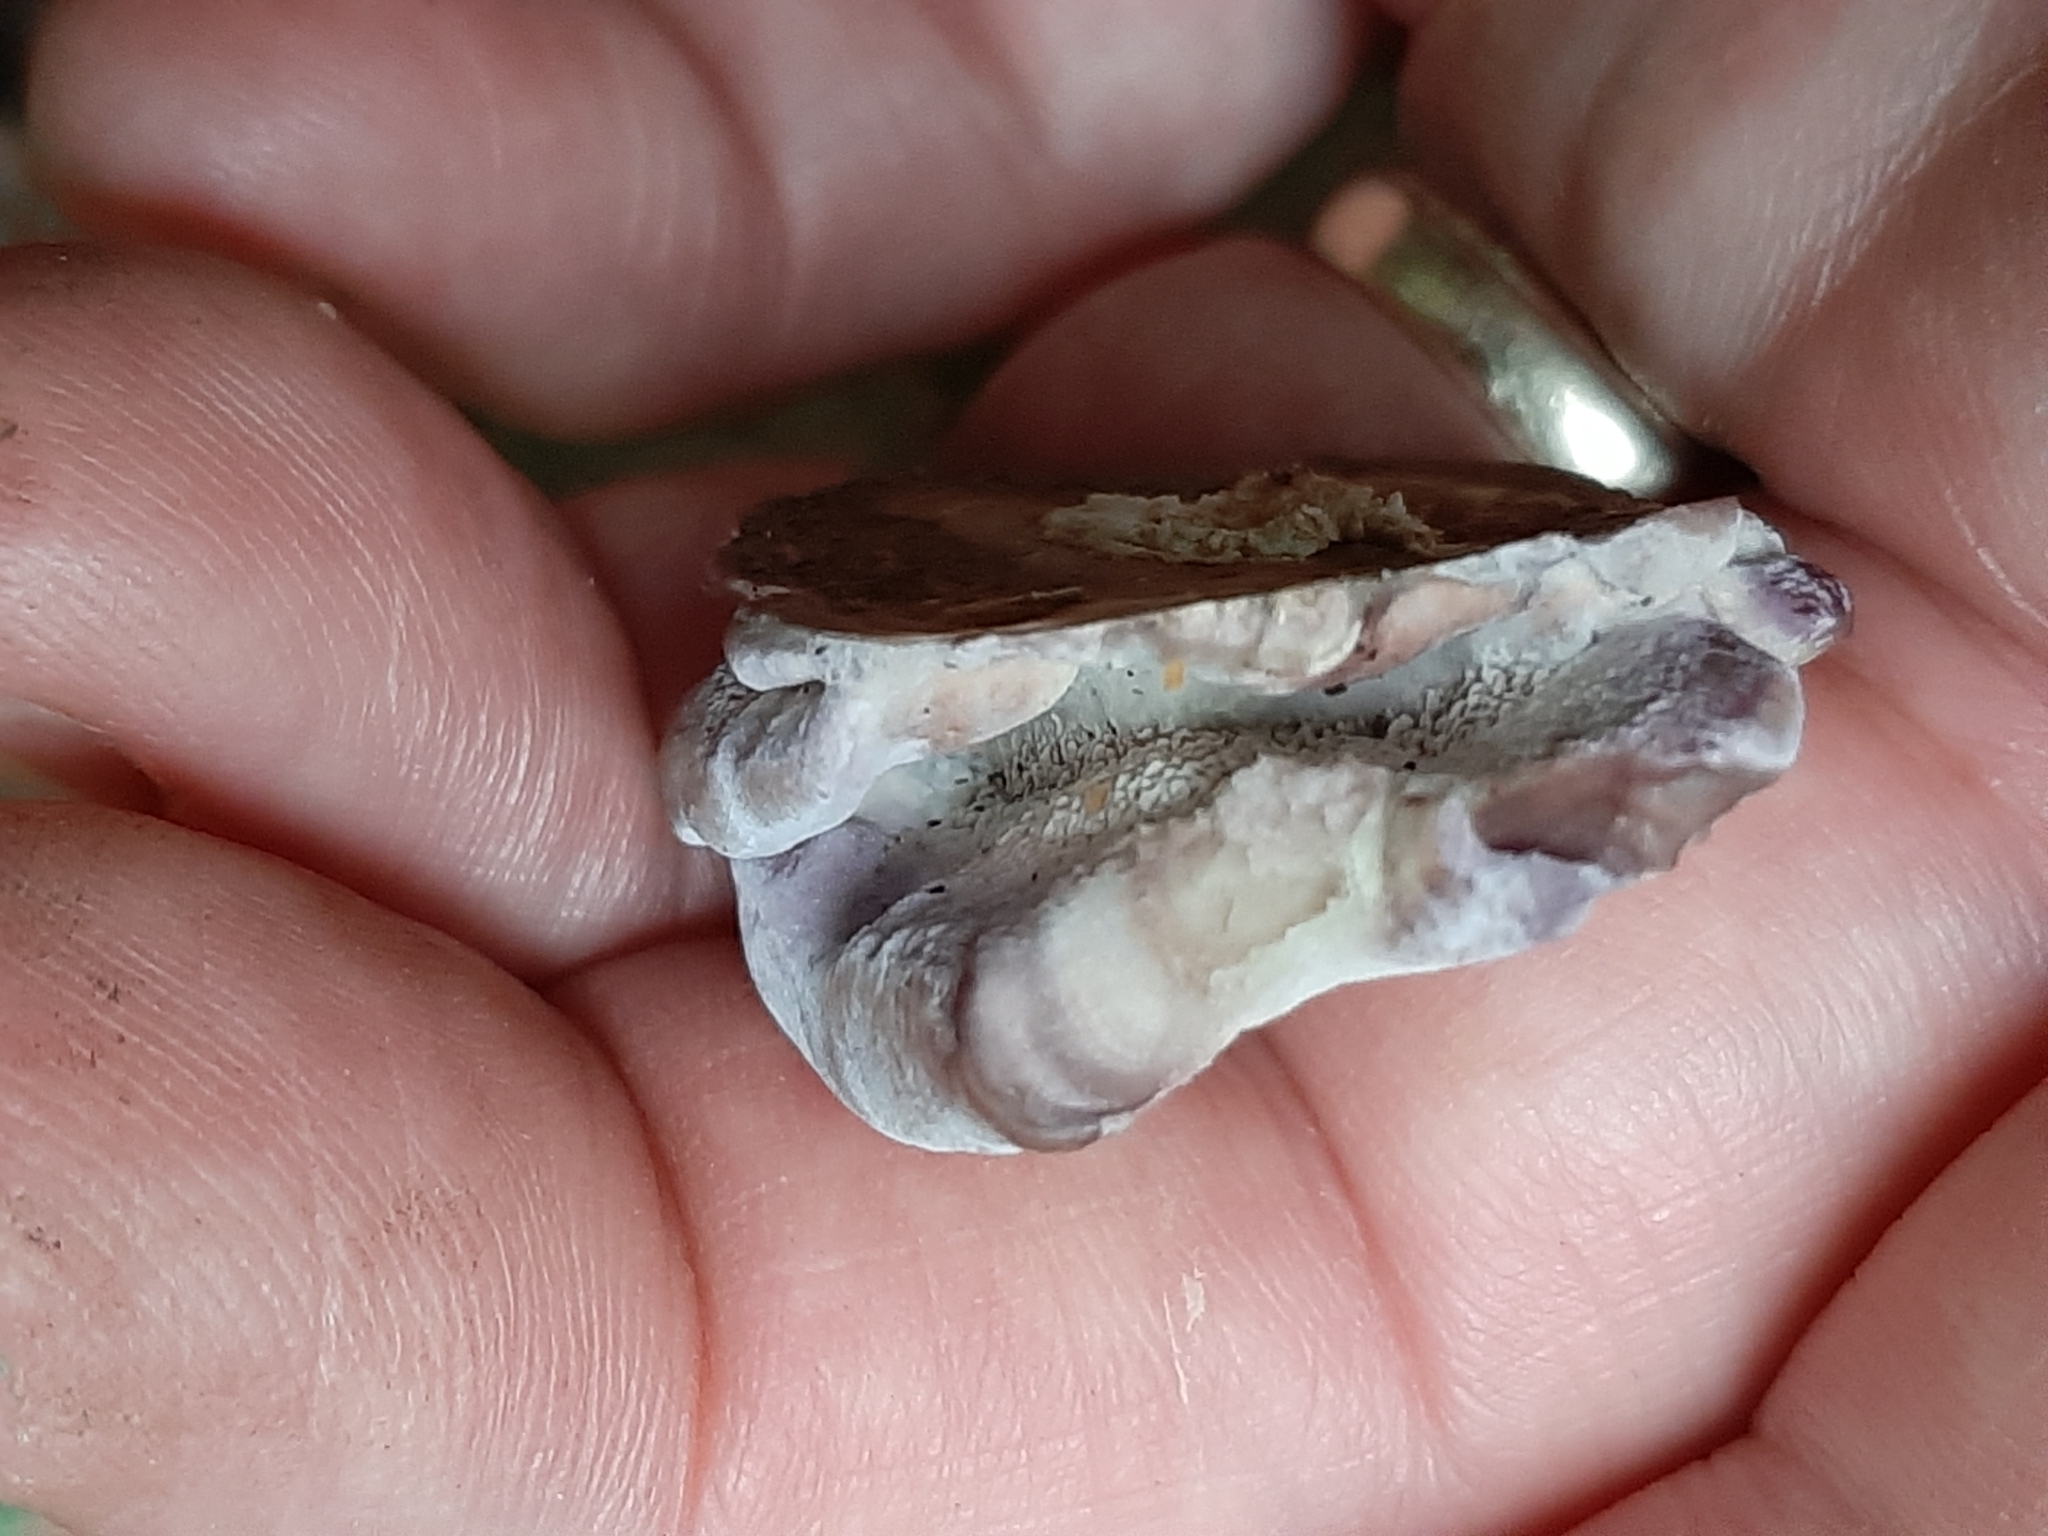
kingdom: Fungi
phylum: Basidiomycota
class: Agaricomycetes
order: Hymenochaetales
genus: Trichaptum
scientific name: Trichaptum biforme
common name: Violet-toothed polypore
